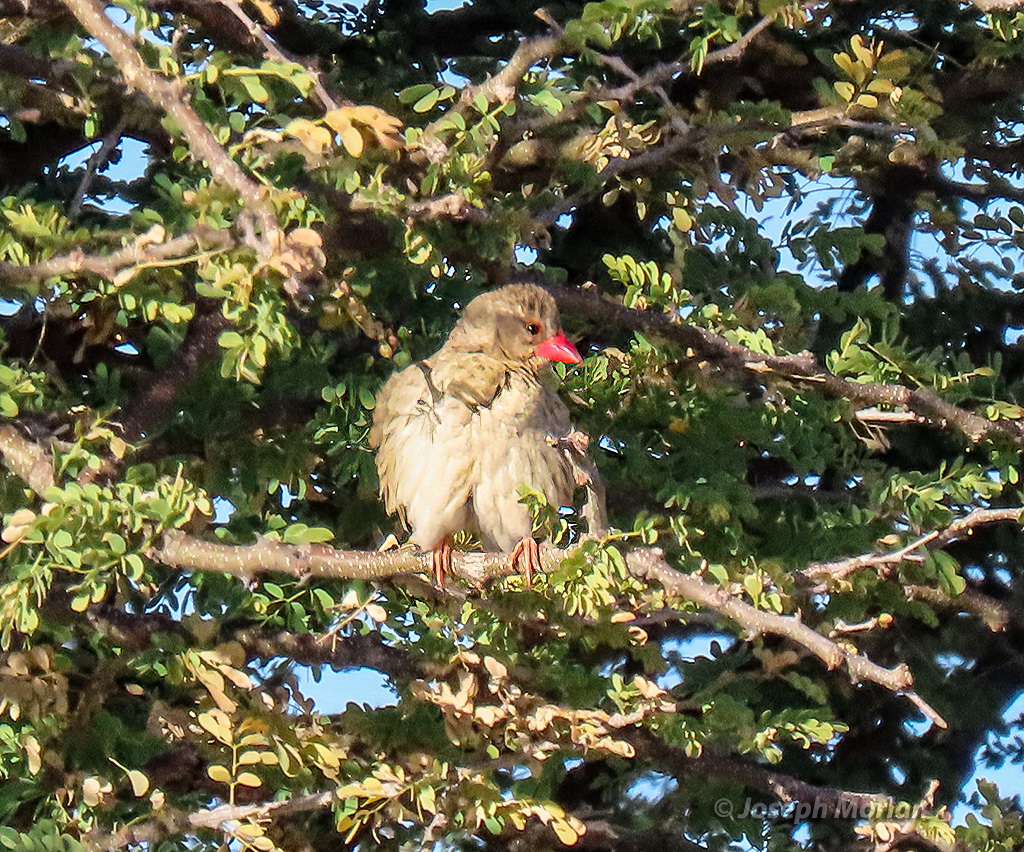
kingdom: Animalia
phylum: Chordata
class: Aves
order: Passeriformes
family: Ploceidae
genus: Quelea
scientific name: Quelea quelea
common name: Red-billed quelea
